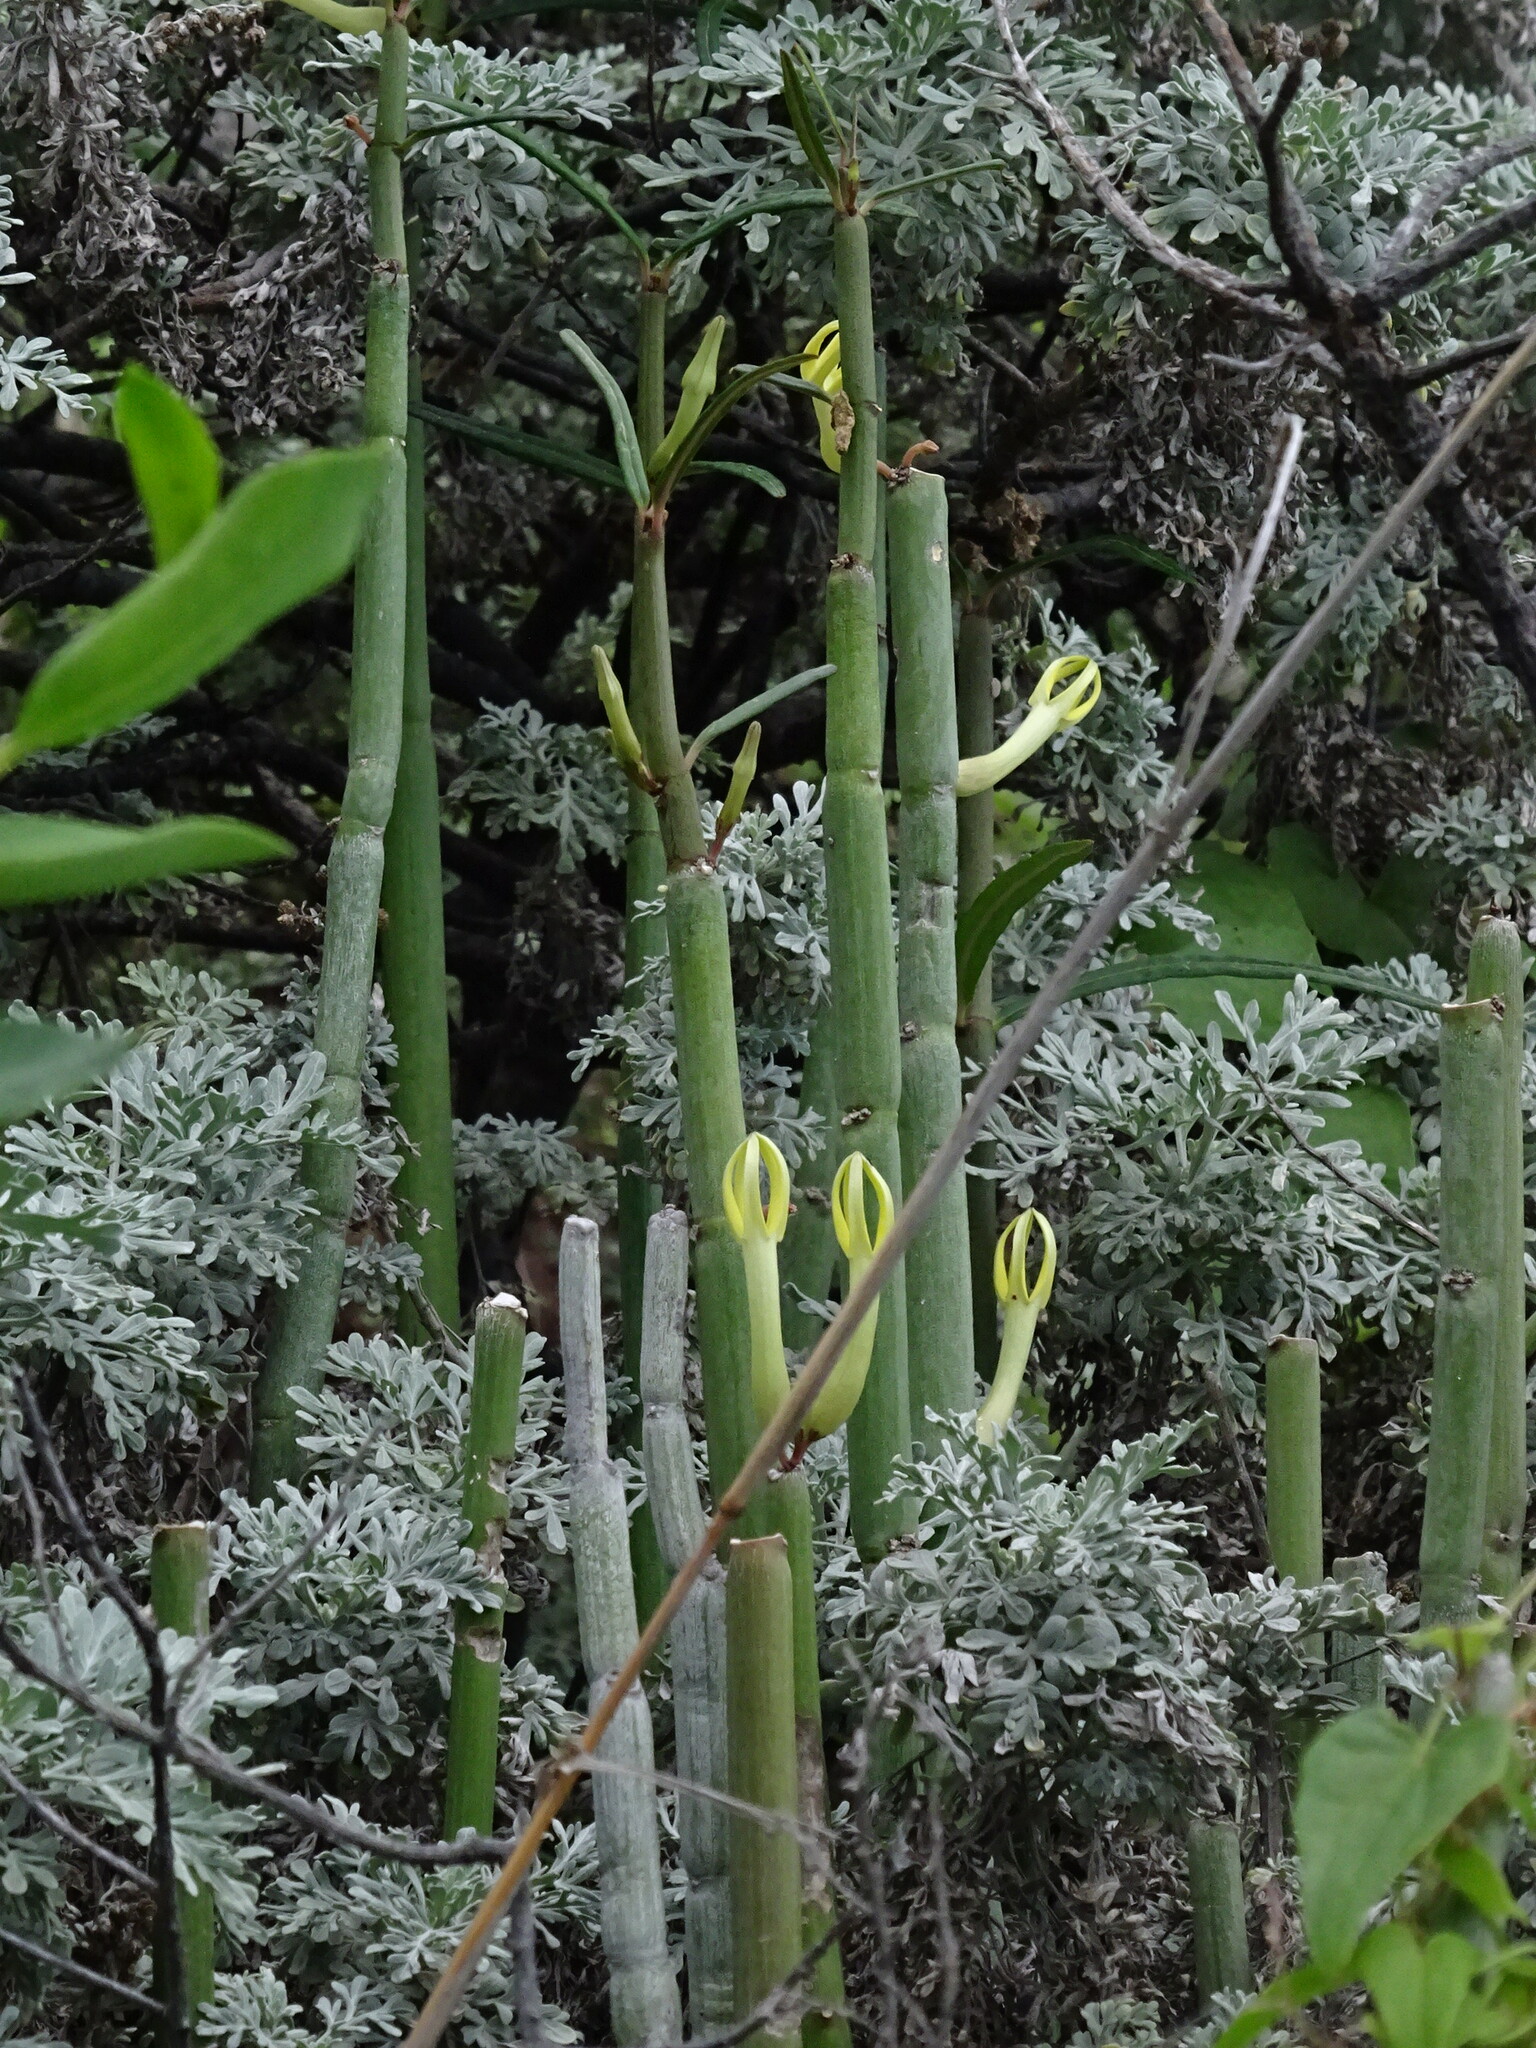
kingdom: Plantae
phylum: Tracheophyta
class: Magnoliopsida
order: Gentianales
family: Apocynaceae
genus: Ceropegia
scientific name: Ceropegia dichotoma
